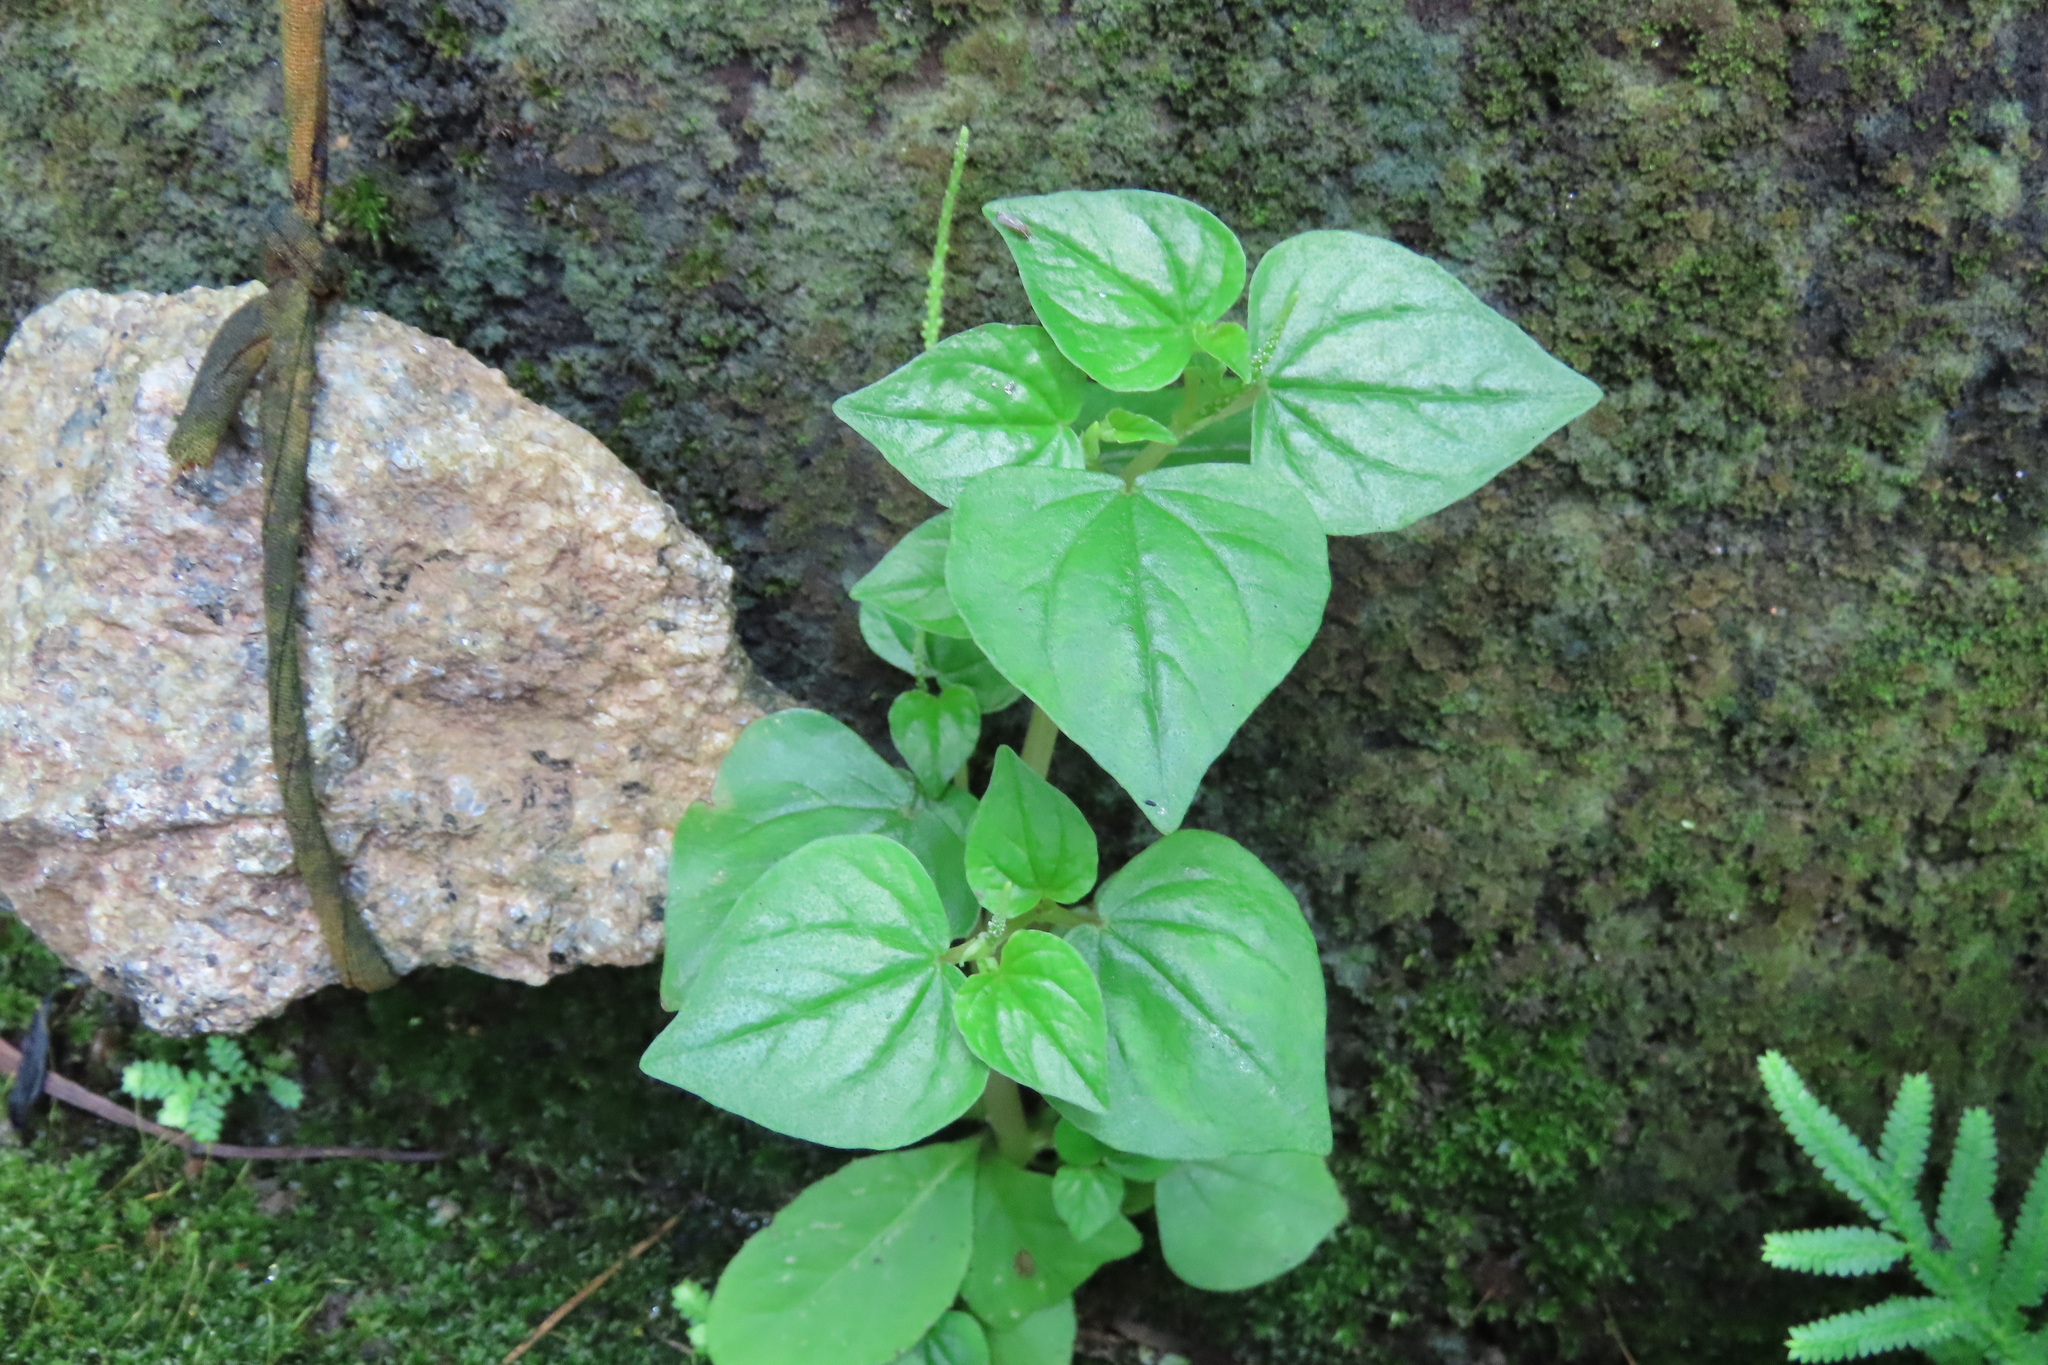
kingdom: Plantae
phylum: Tracheophyta
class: Magnoliopsida
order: Piperales
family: Piperaceae
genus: Peperomia
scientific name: Peperomia pellucida
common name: Man to man
